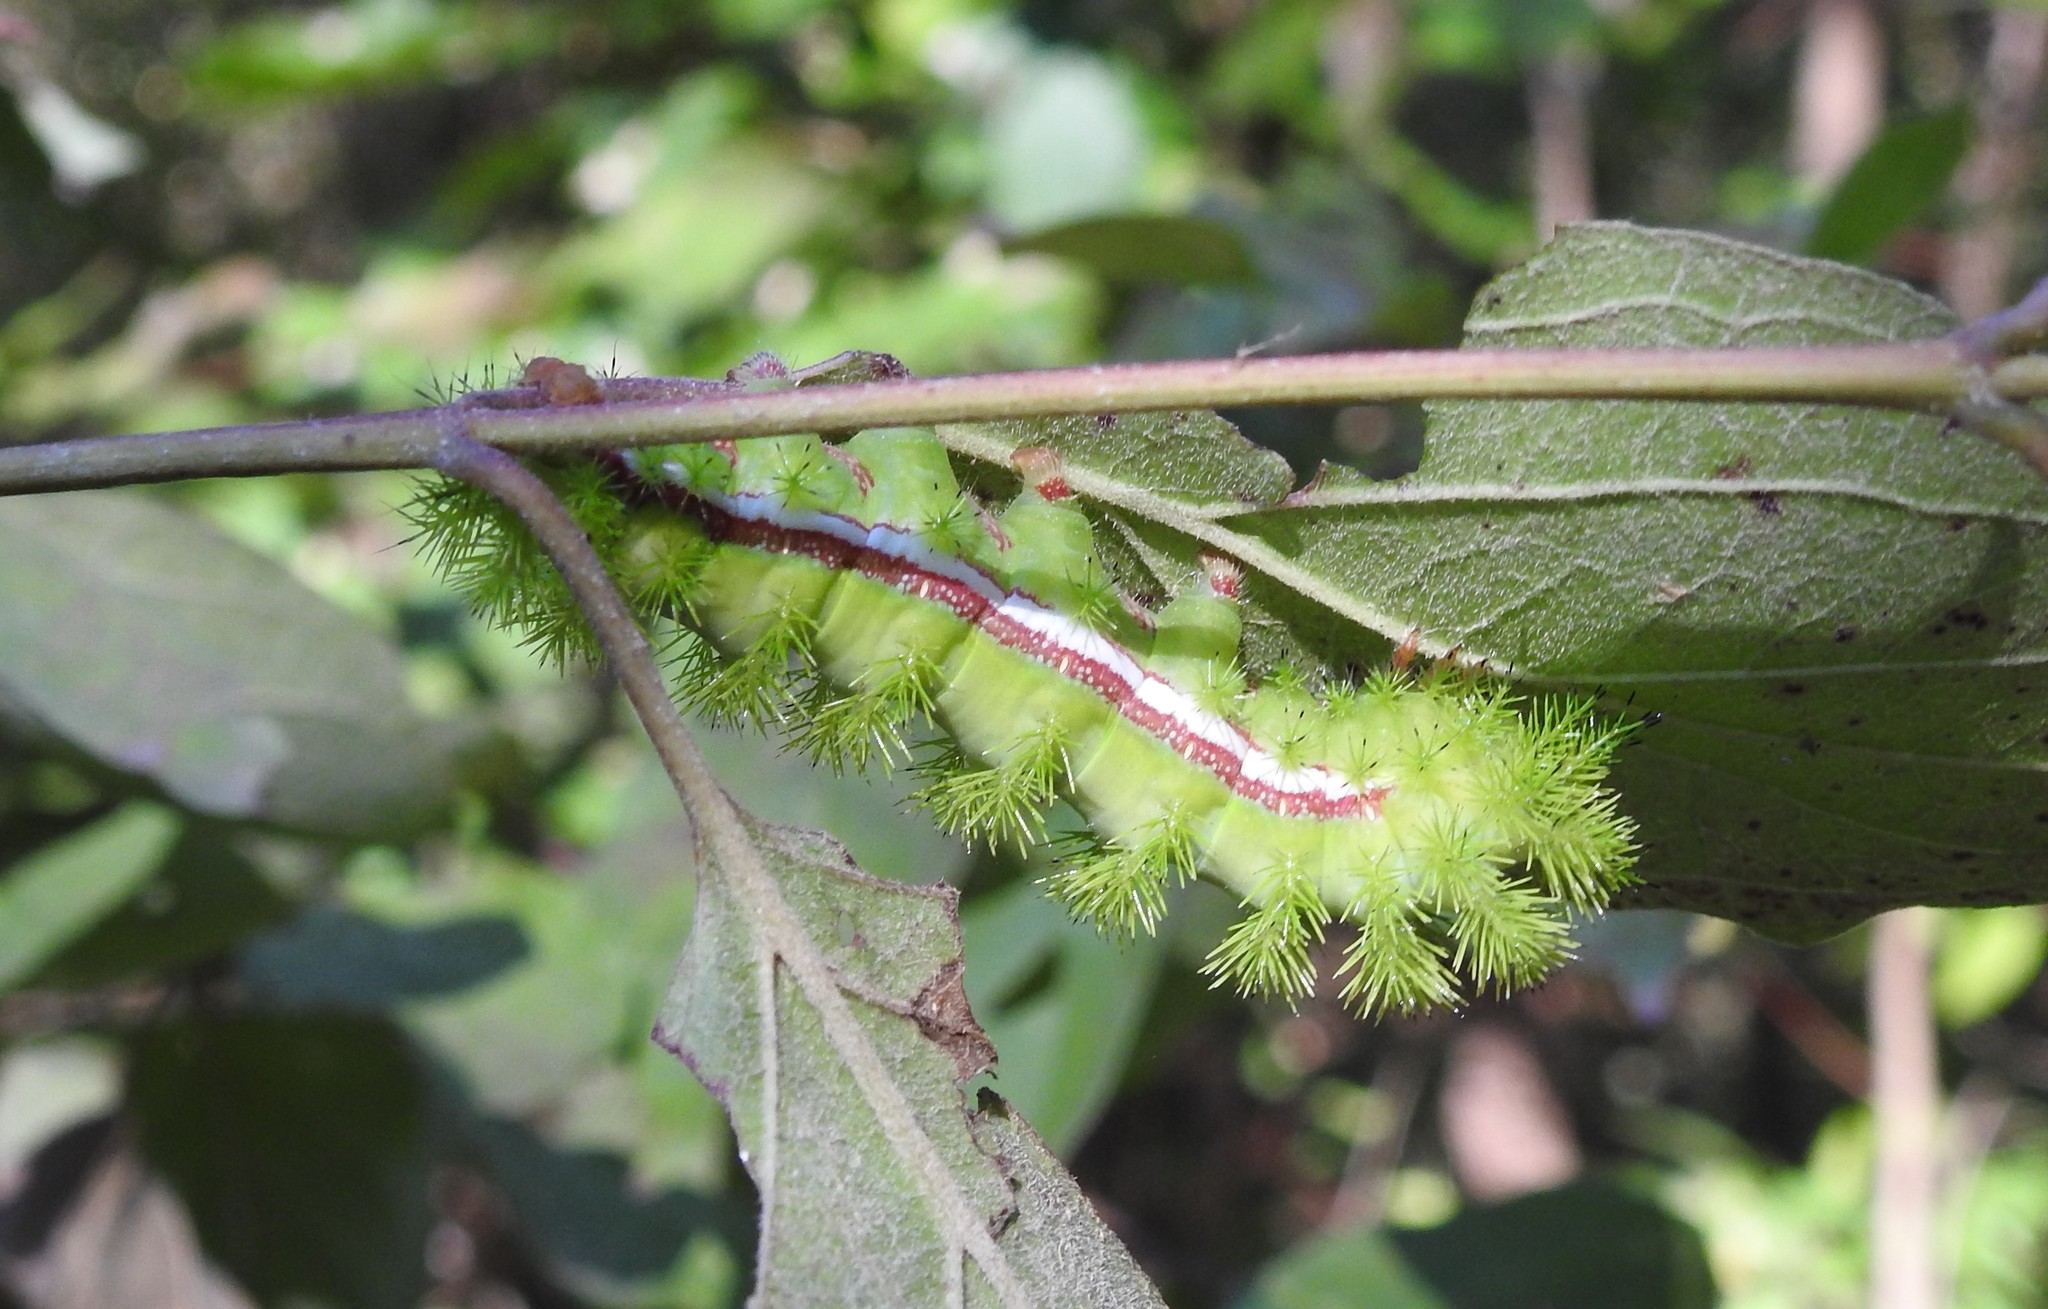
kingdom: Animalia
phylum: Arthropoda
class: Insecta
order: Lepidoptera
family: Saturniidae
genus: Automeris
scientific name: Automeris io
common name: Io moth
